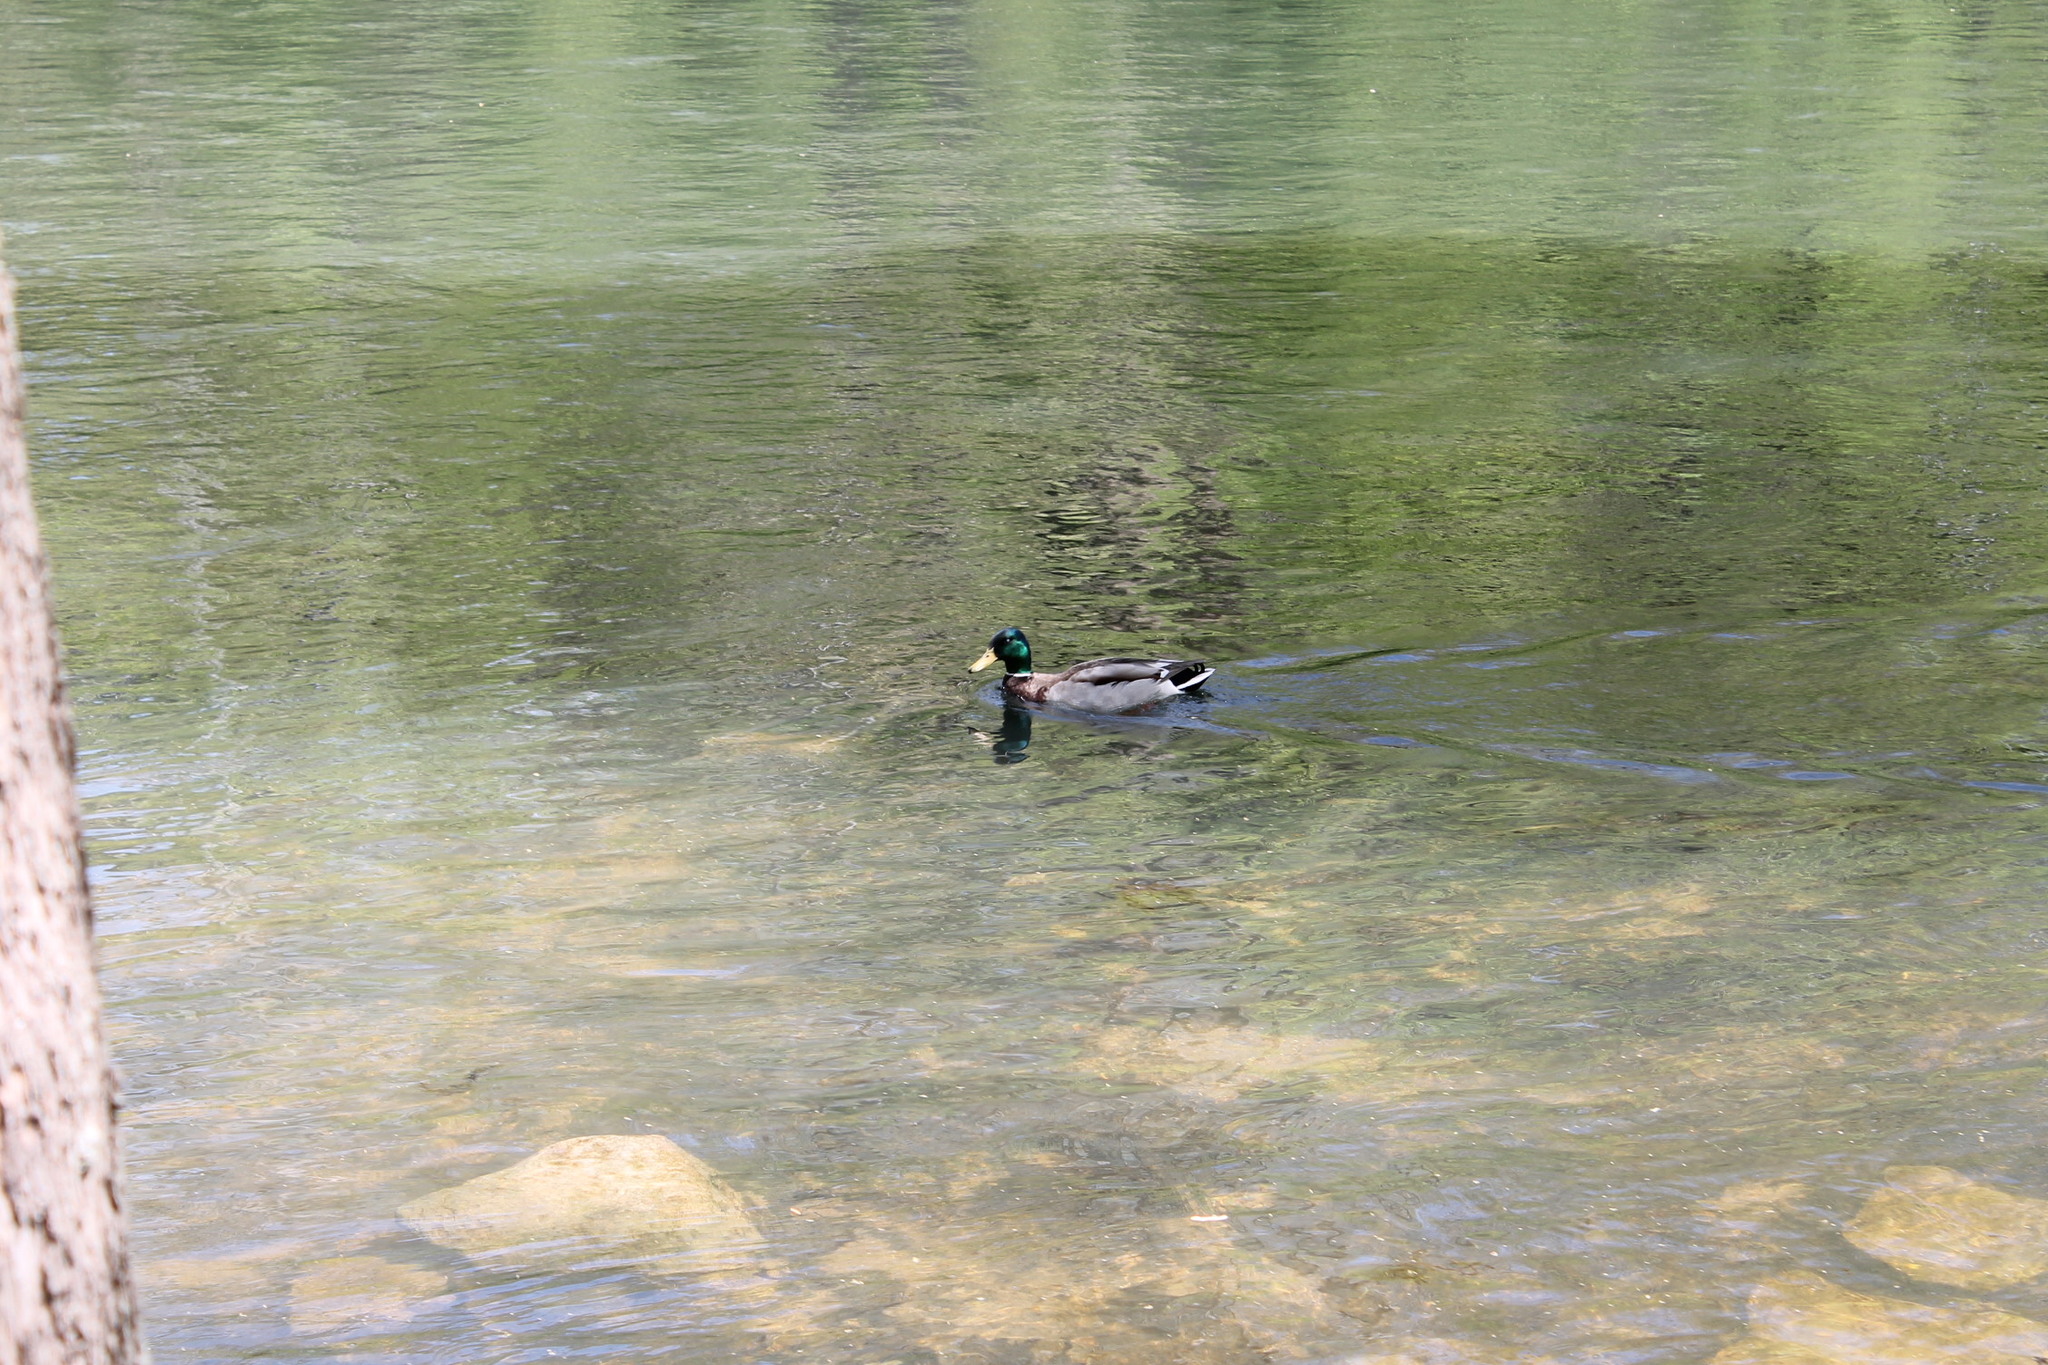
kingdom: Animalia
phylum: Chordata
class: Aves
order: Anseriformes
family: Anatidae
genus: Anas
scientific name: Anas platyrhynchos
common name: Mallard
